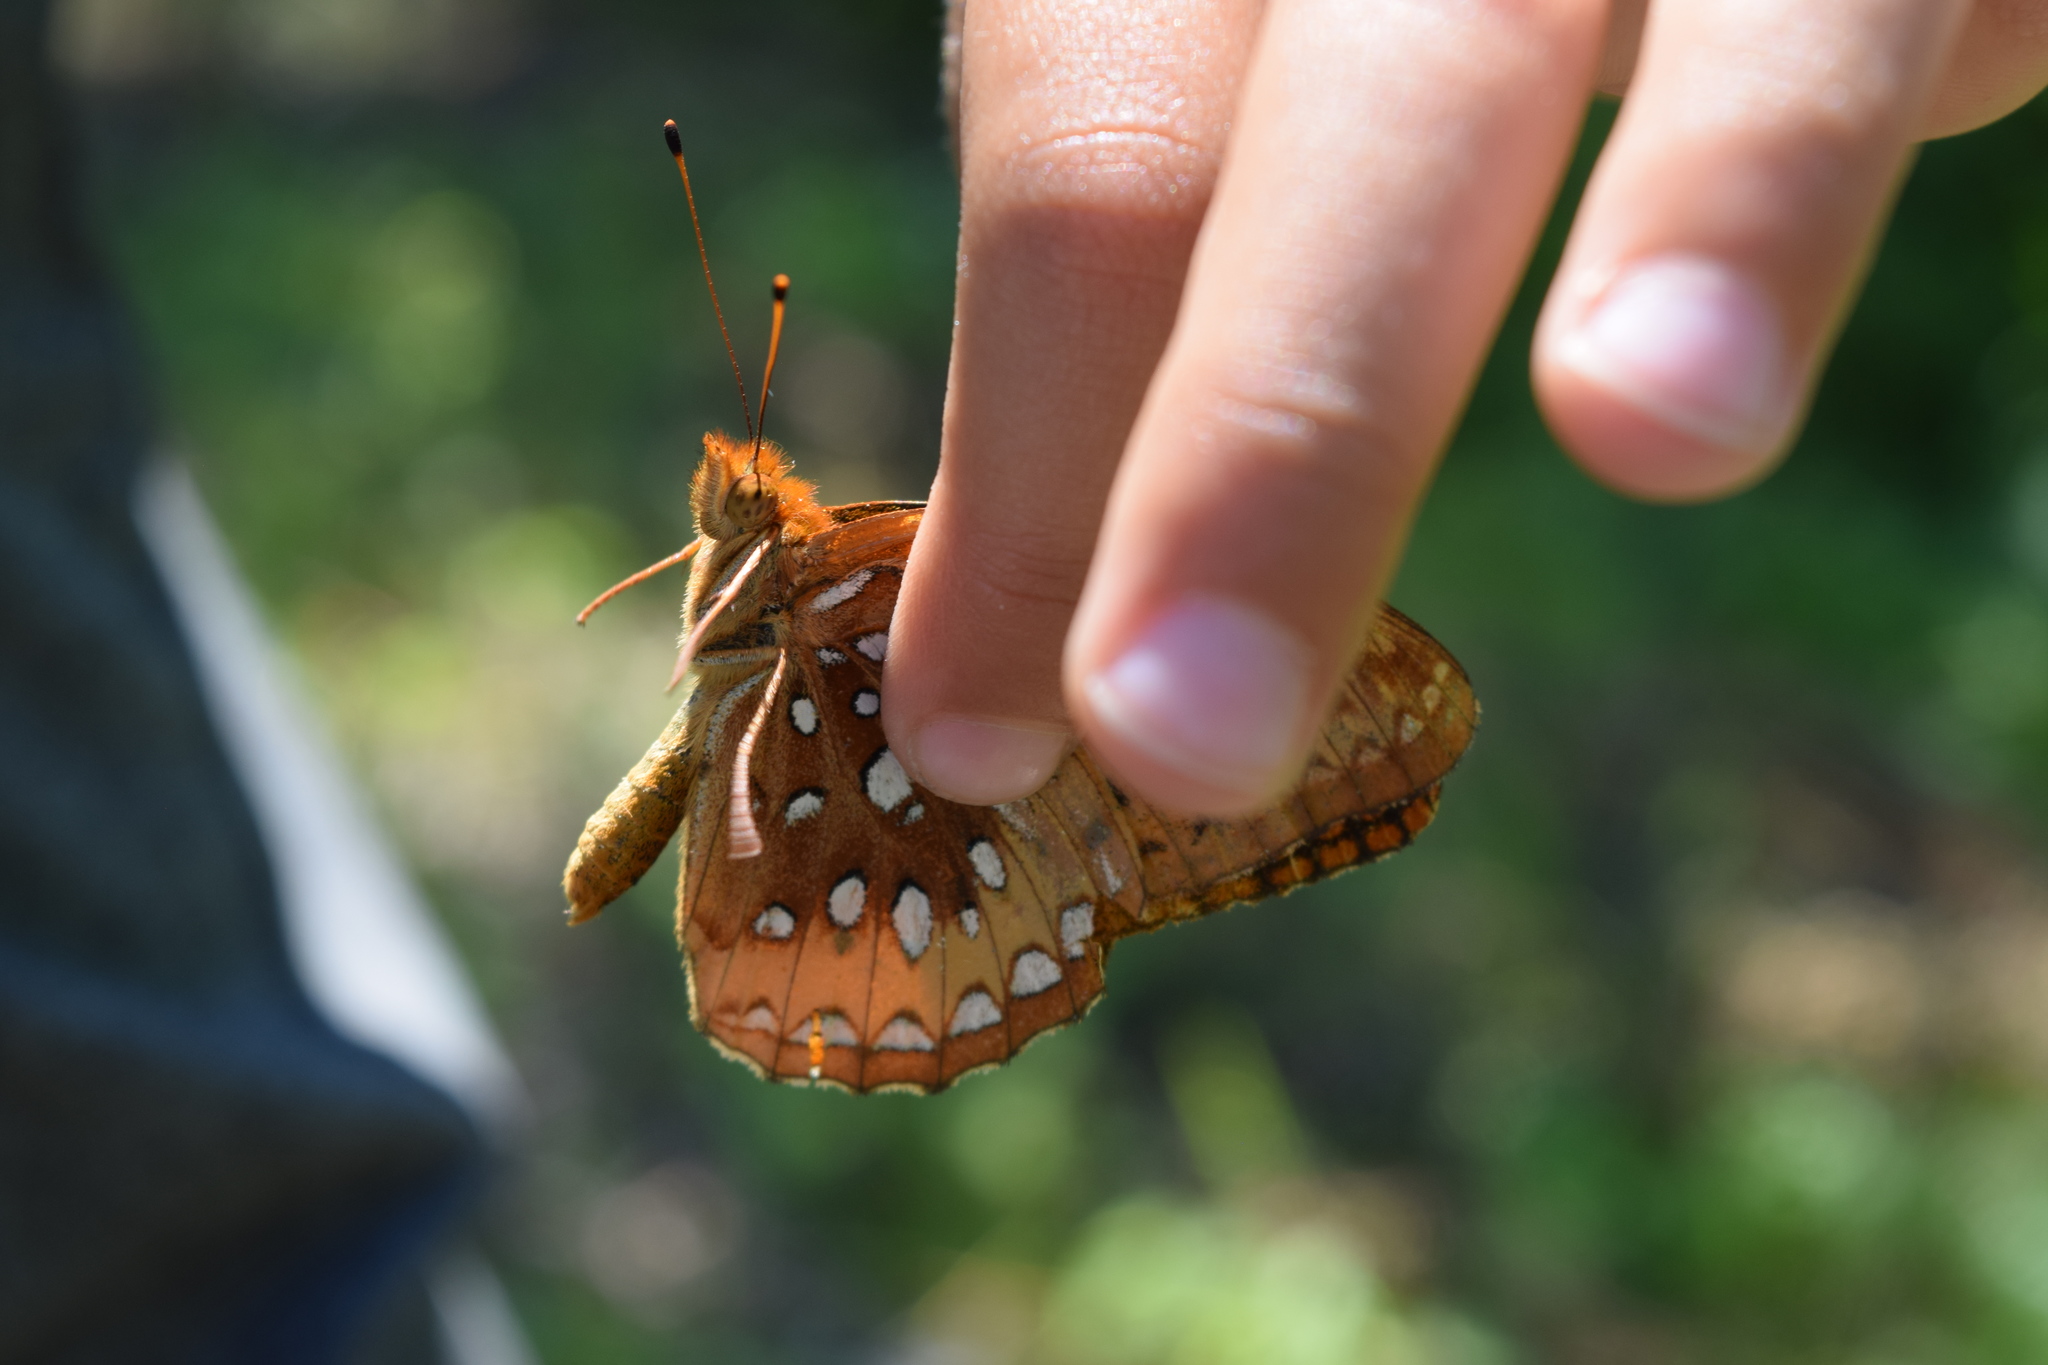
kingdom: Animalia
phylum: Arthropoda
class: Insecta
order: Lepidoptera
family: Nymphalidae
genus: Speyeria
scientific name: Speyeria cybele
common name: Great spangled fritillary
